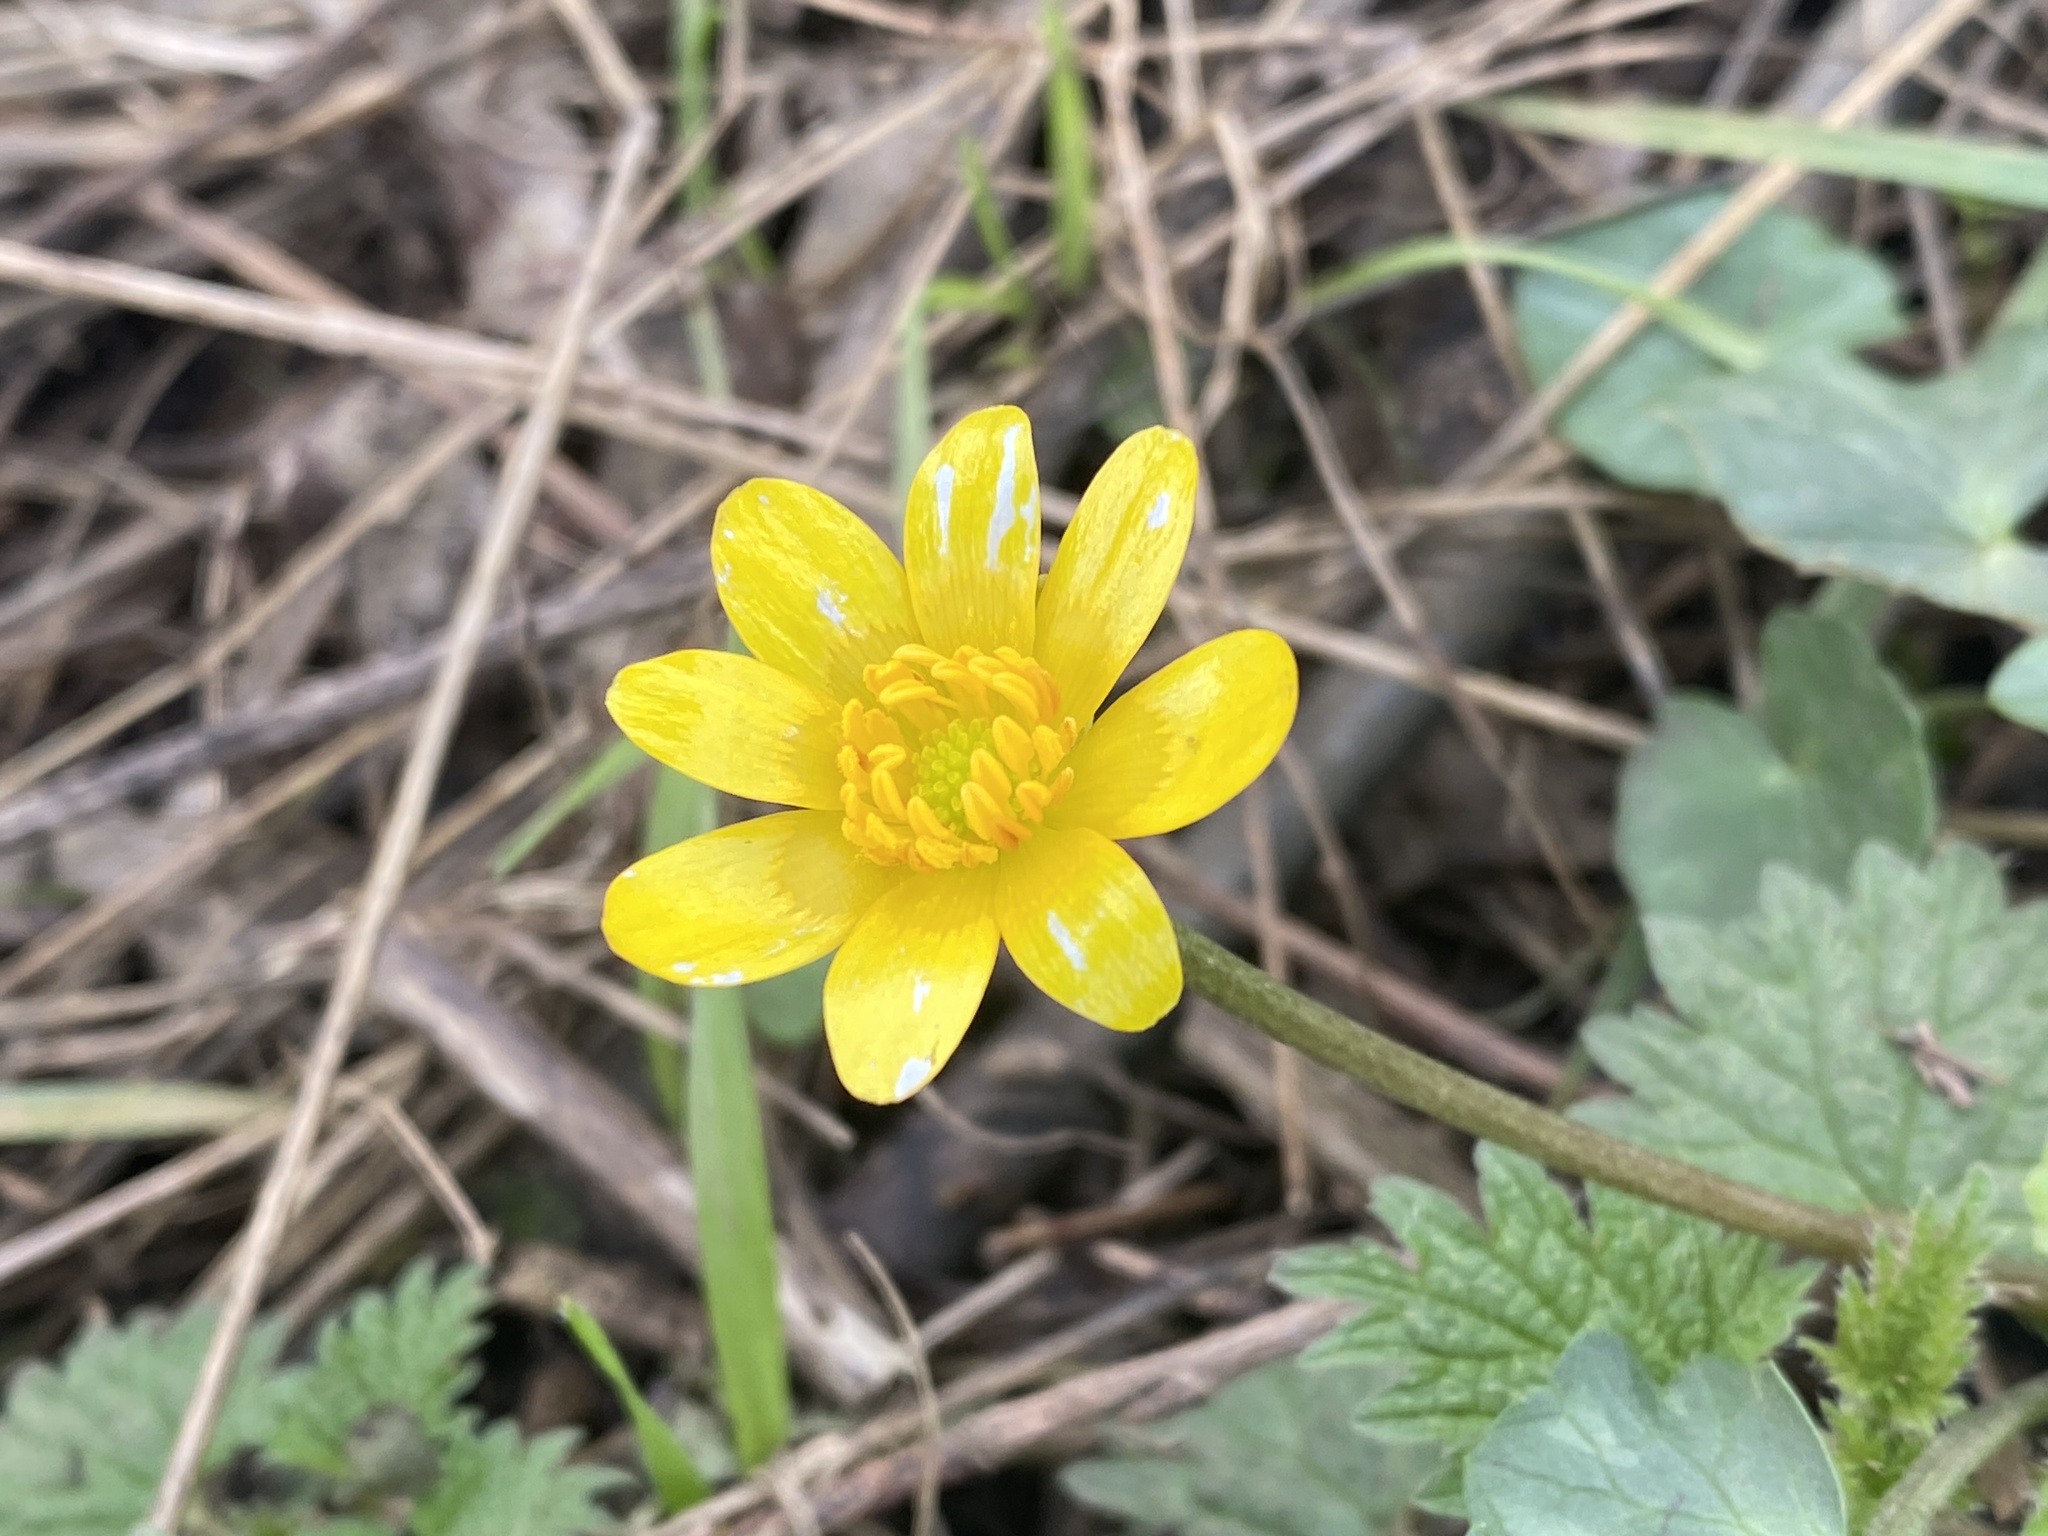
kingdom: Plantae
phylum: Tracheophyta
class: Magnoliopsida
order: Ranunculales
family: Ranunculaceae
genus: Ficaria
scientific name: Ficaria verna
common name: Lesser celandine
